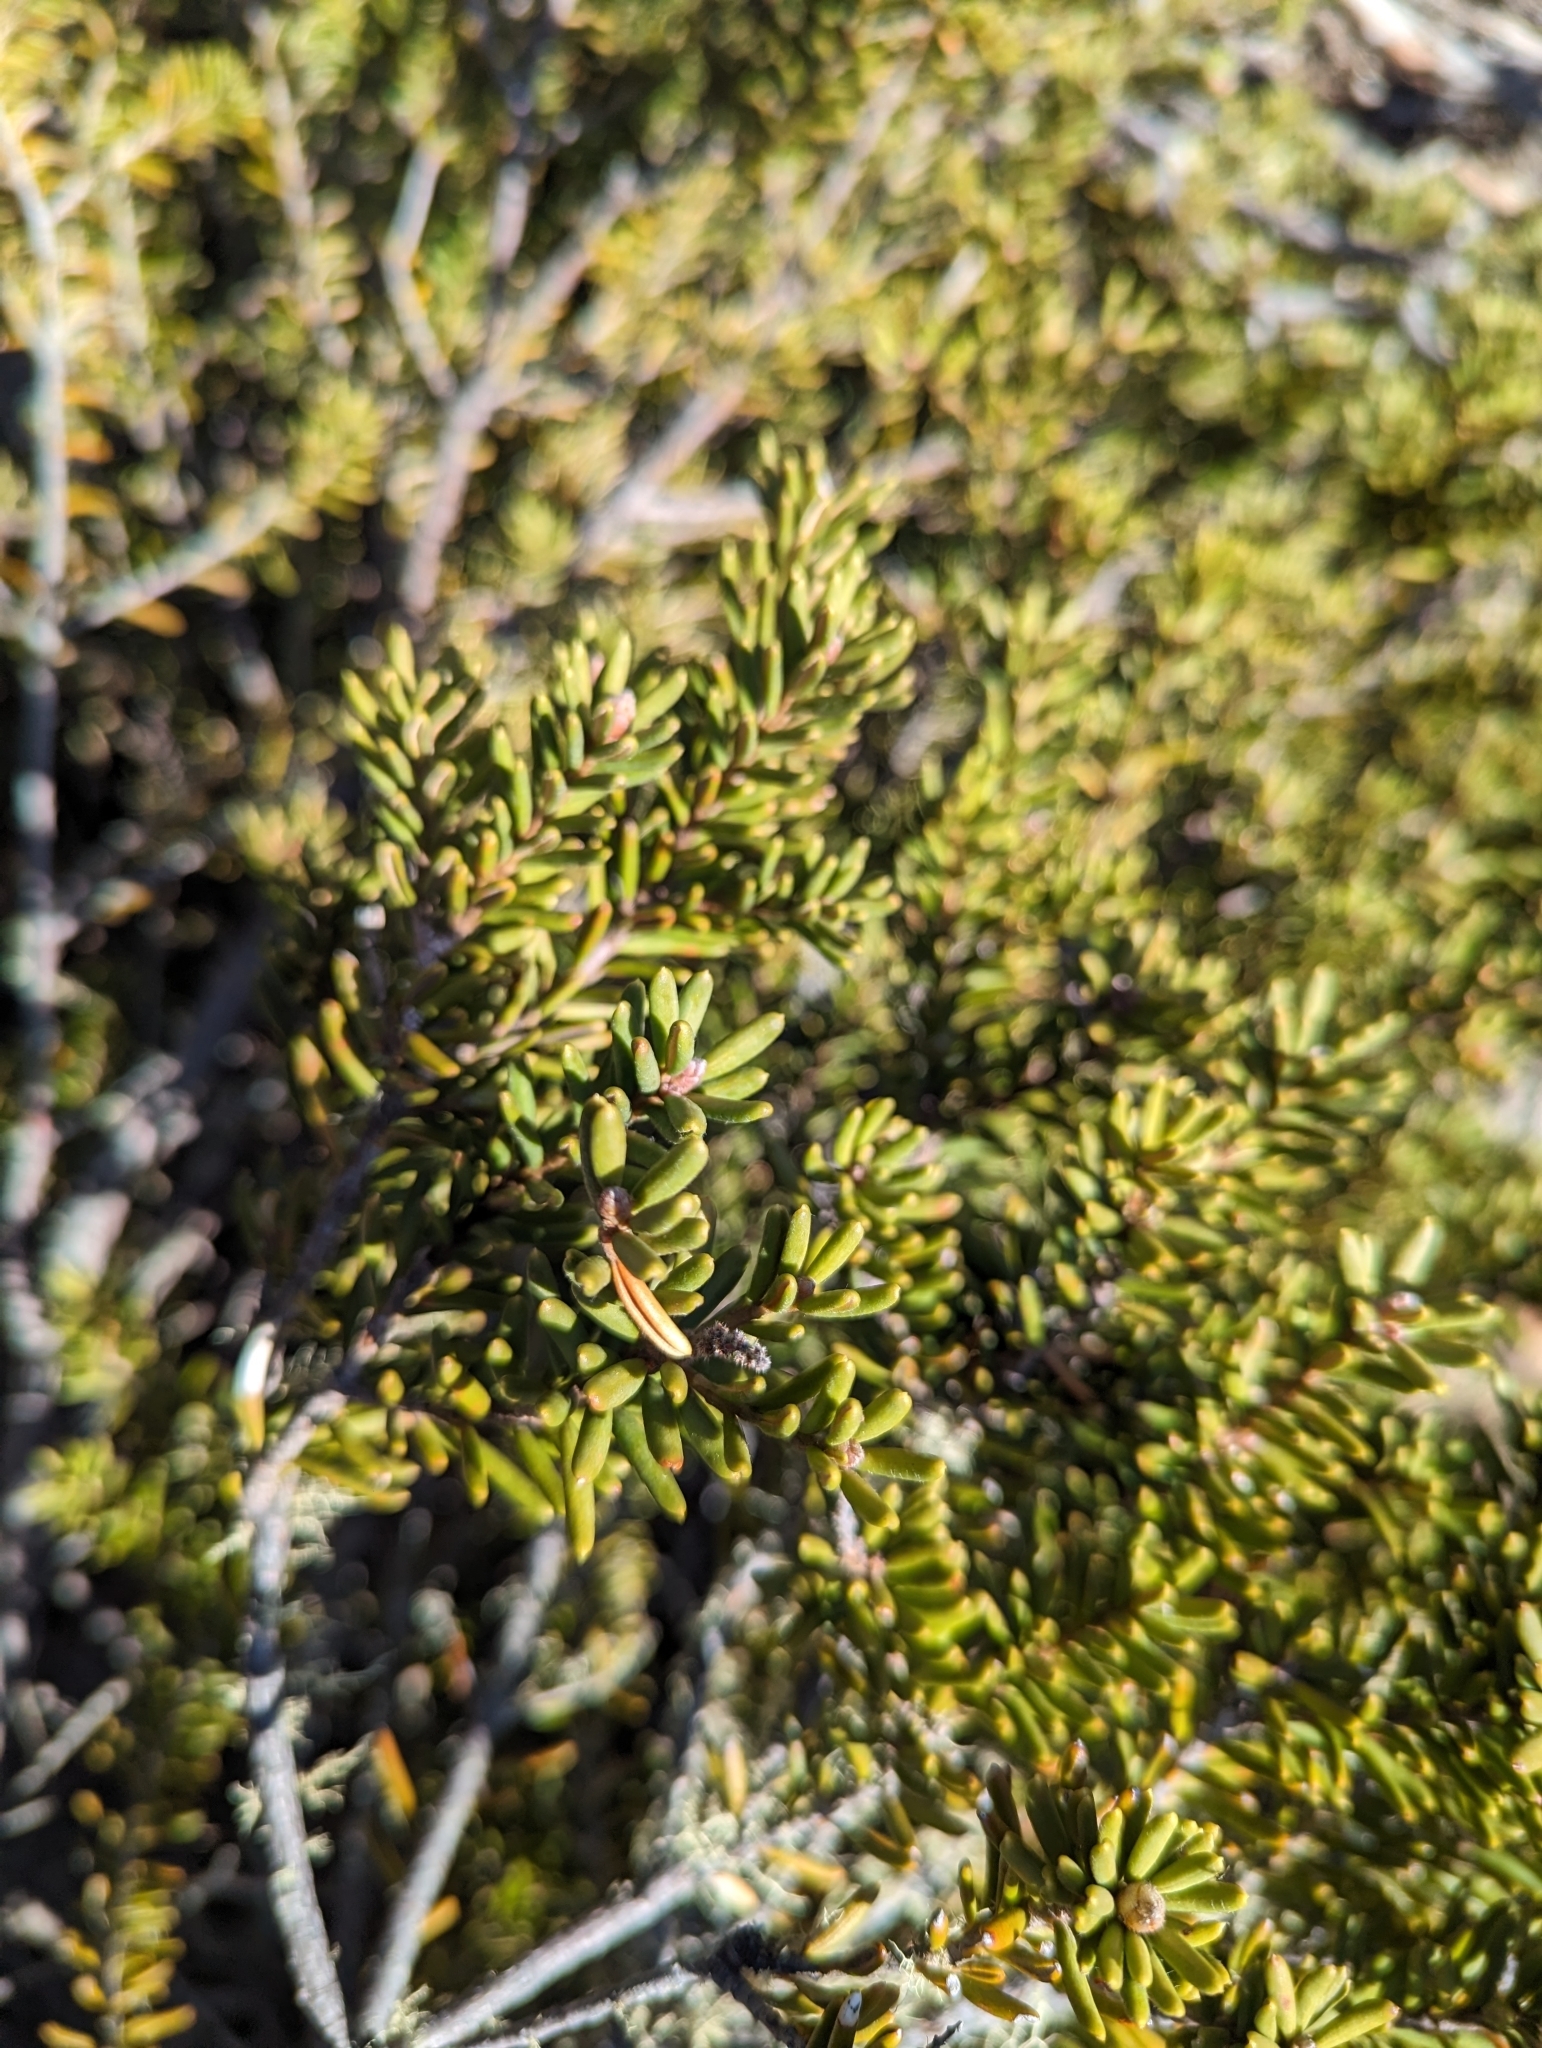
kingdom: Plantae
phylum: Tracheophyta
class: Magnoliopsida
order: Proteales
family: Proteaceae
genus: Orites
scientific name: Orites revolutus
